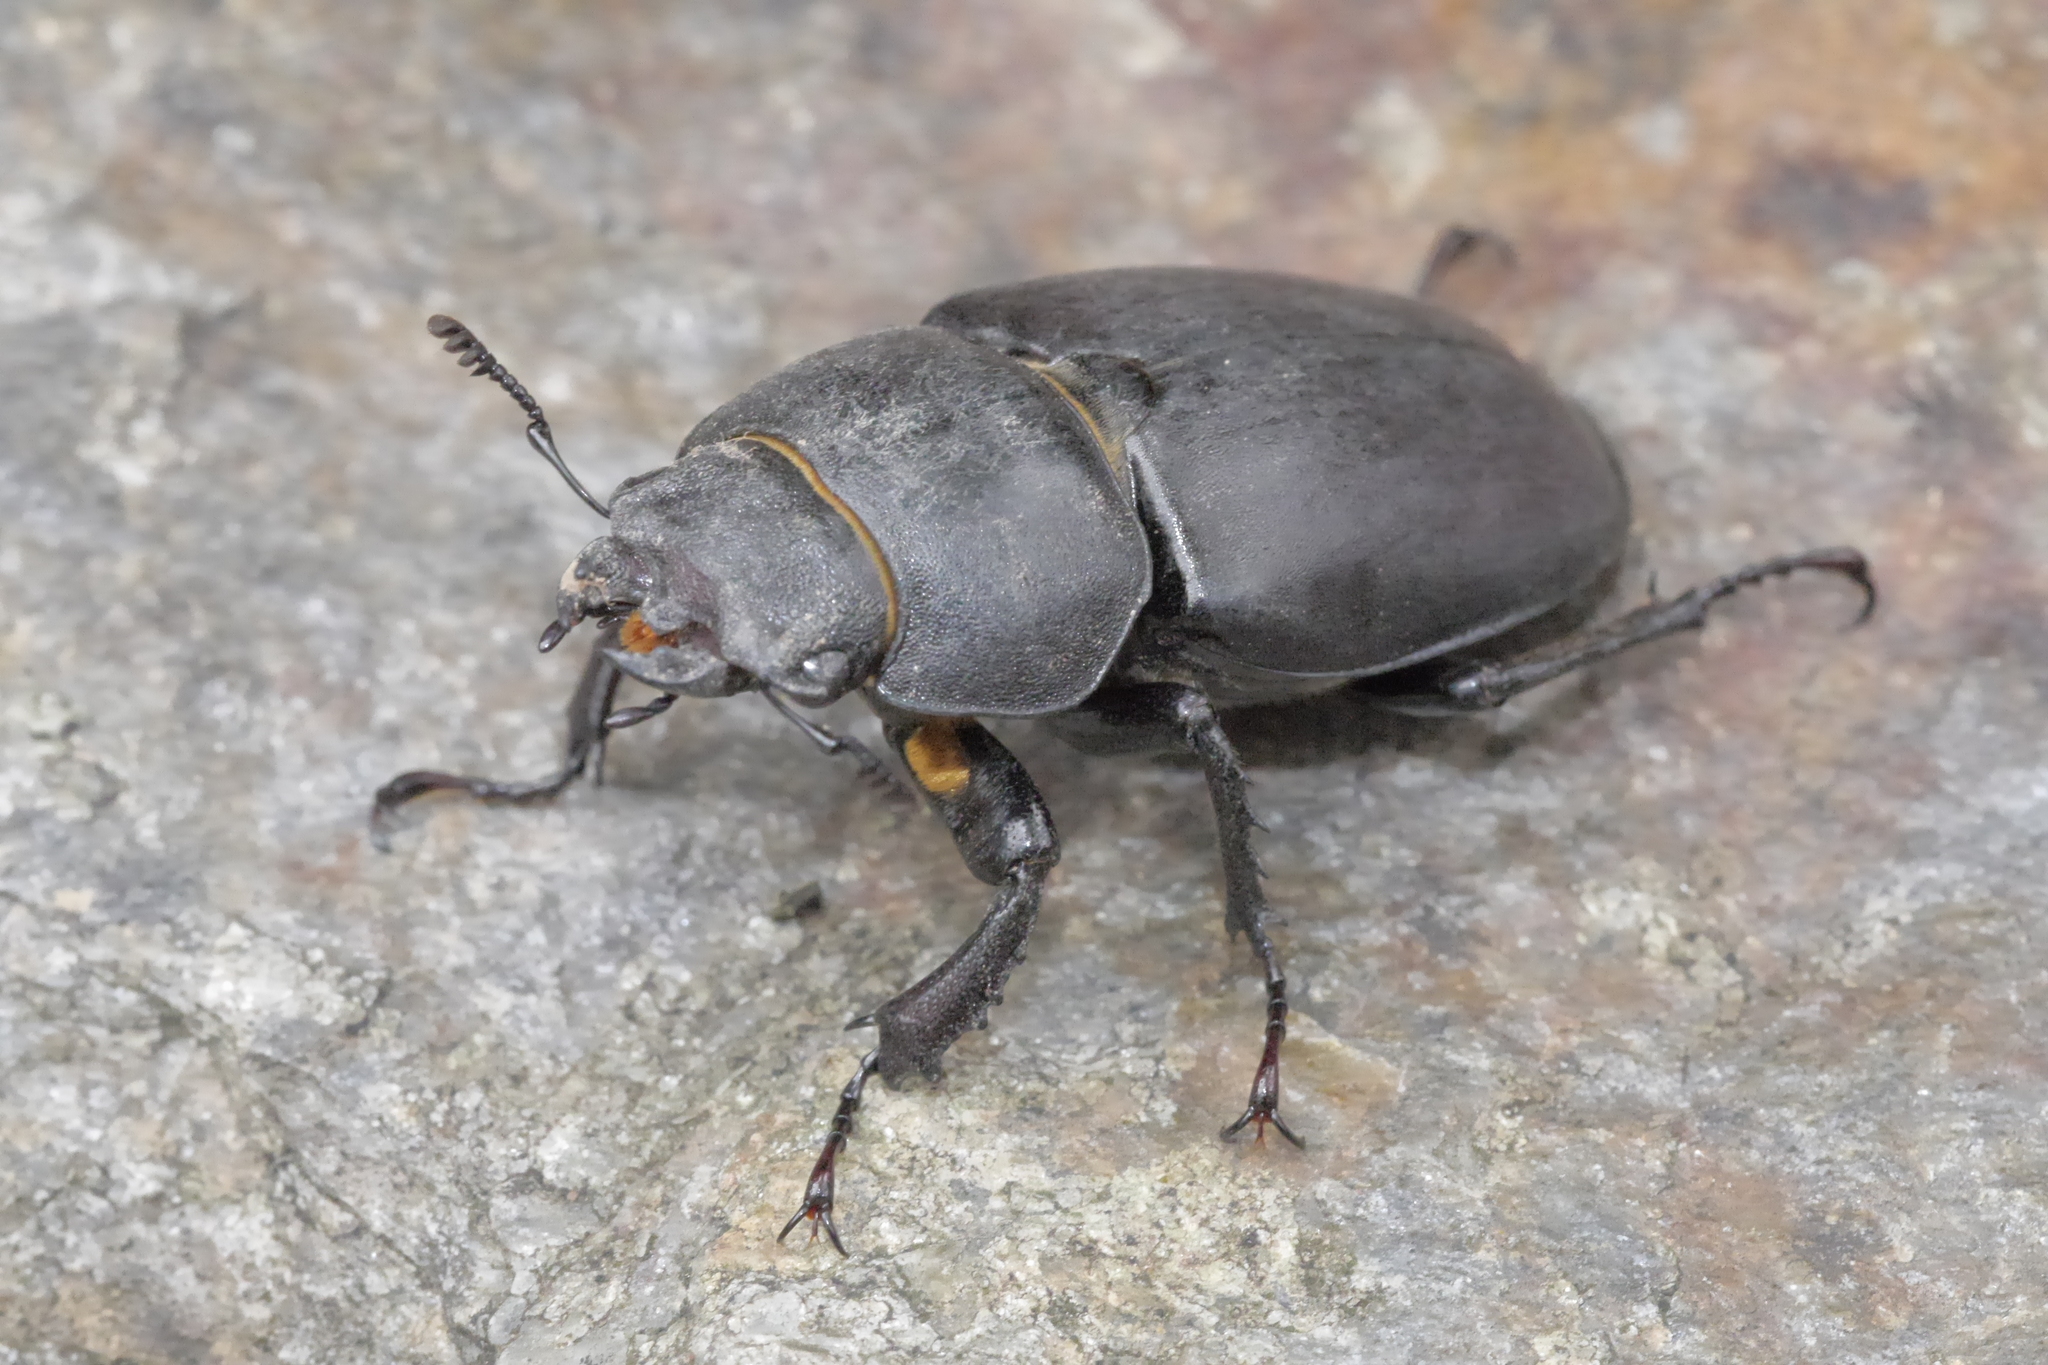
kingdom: Animalia
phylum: Arthropoda
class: Insecta
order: Coleoptera
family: Lucanidae
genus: Lucanus
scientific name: Lucanus cervus
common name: Stag beetle
